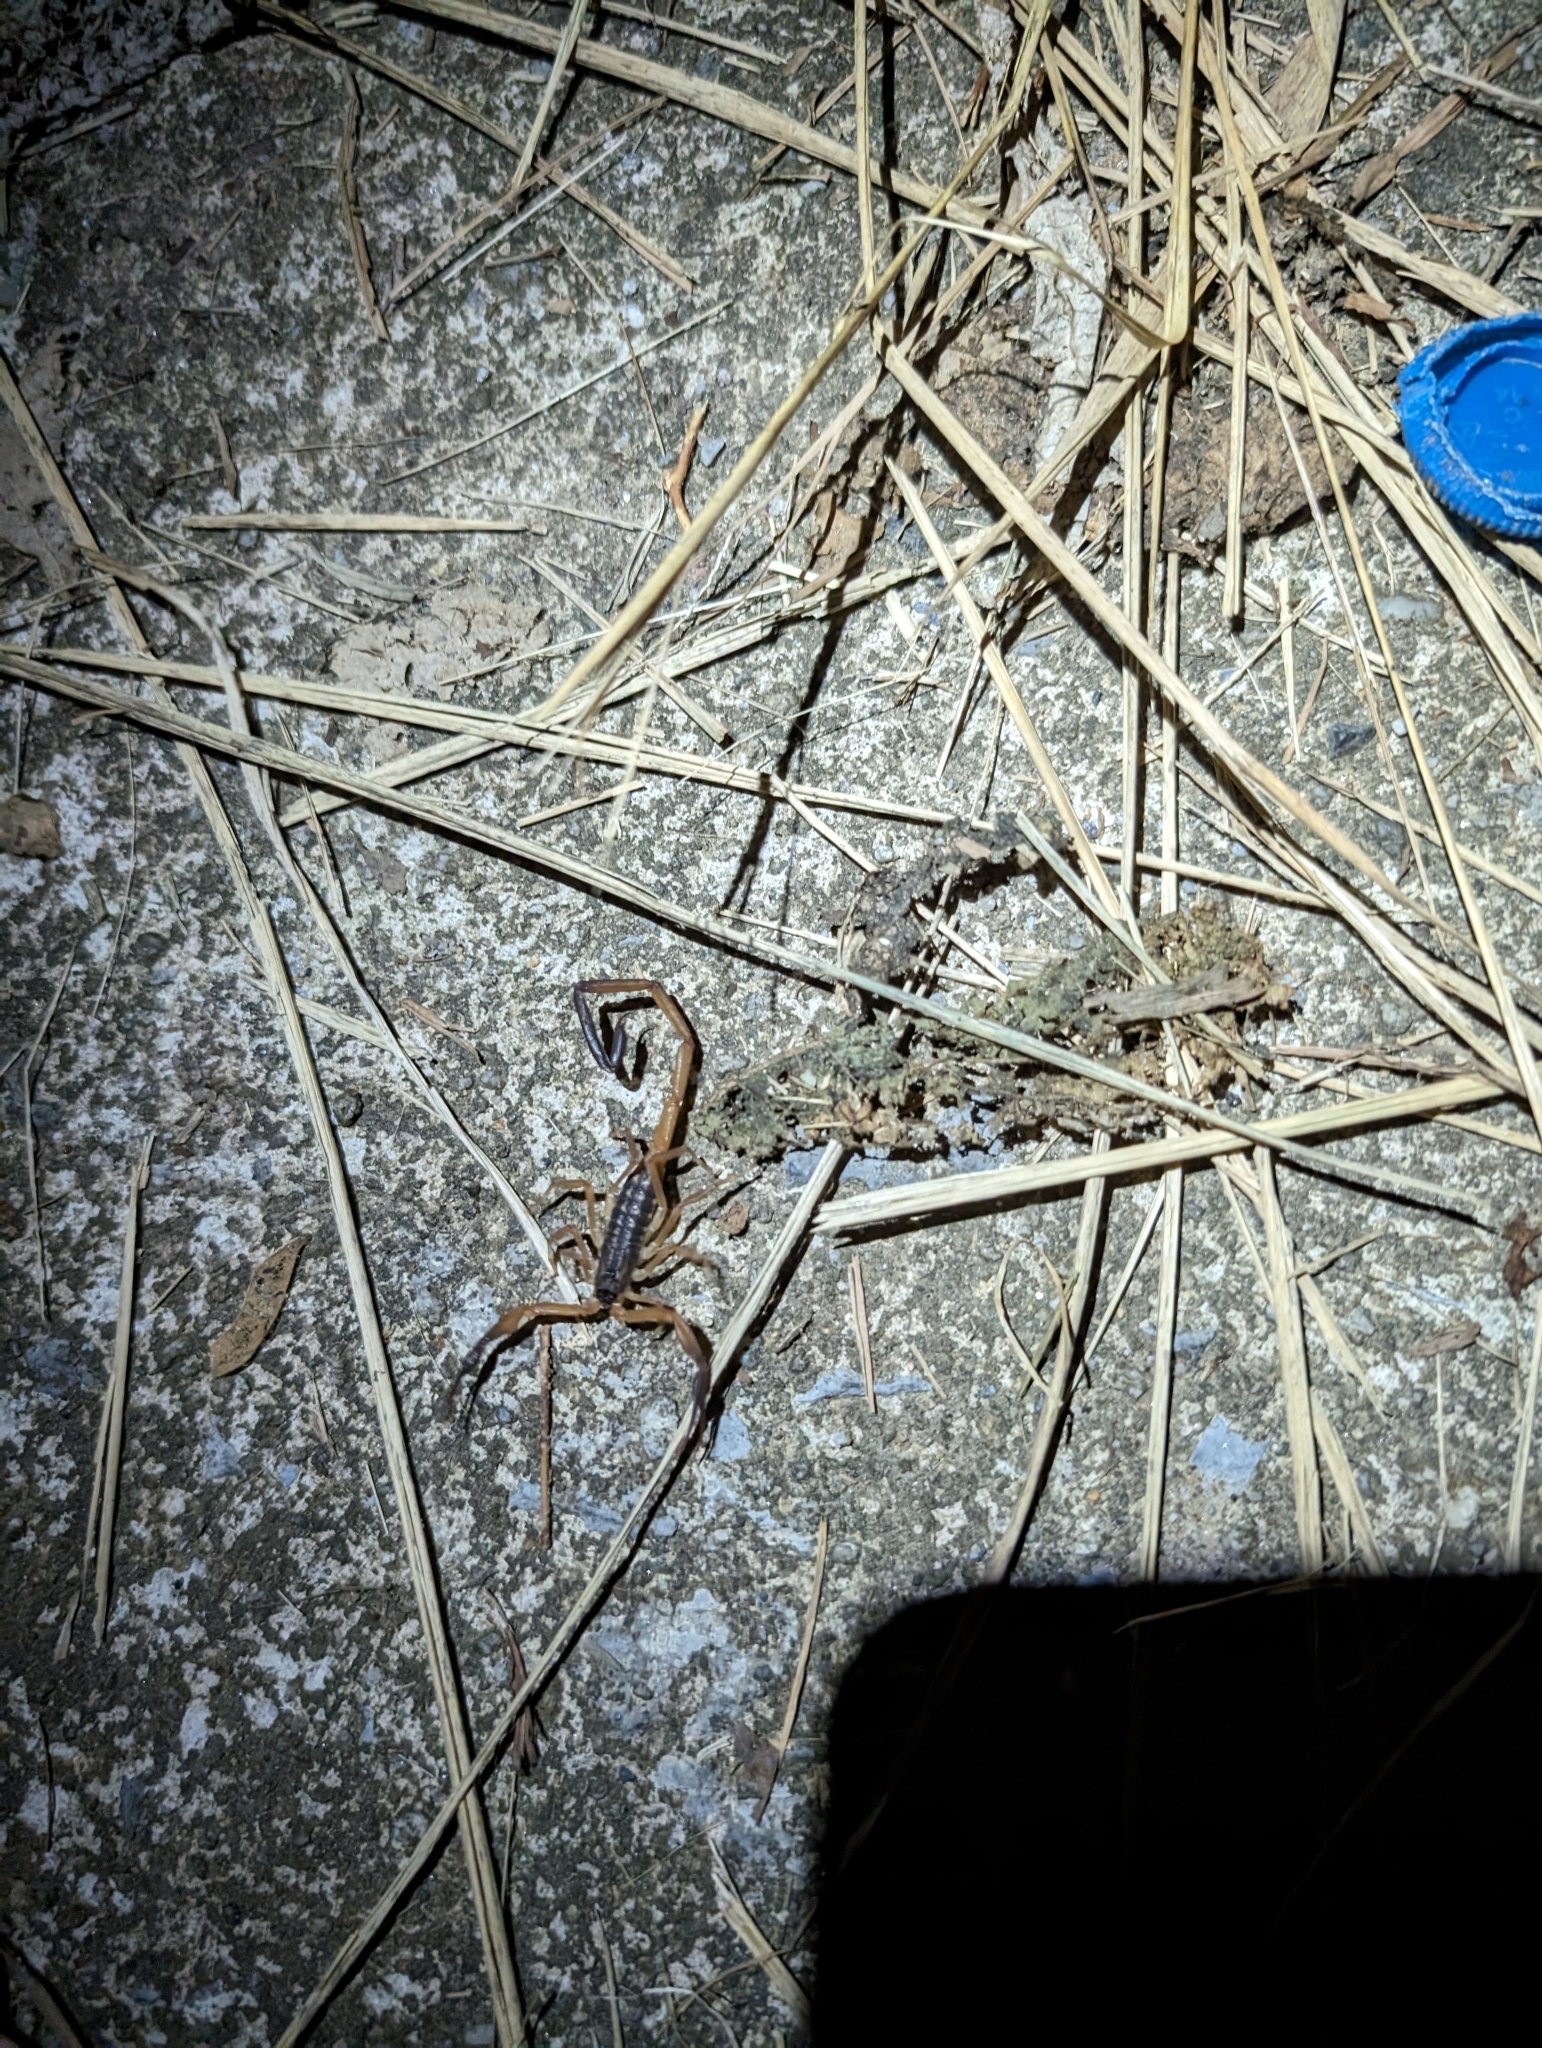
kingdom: Animalia
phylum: Arthropoda
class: Arachnida
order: Scorpiones
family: Buthidae
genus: Lychas
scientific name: Lychas scutilus
